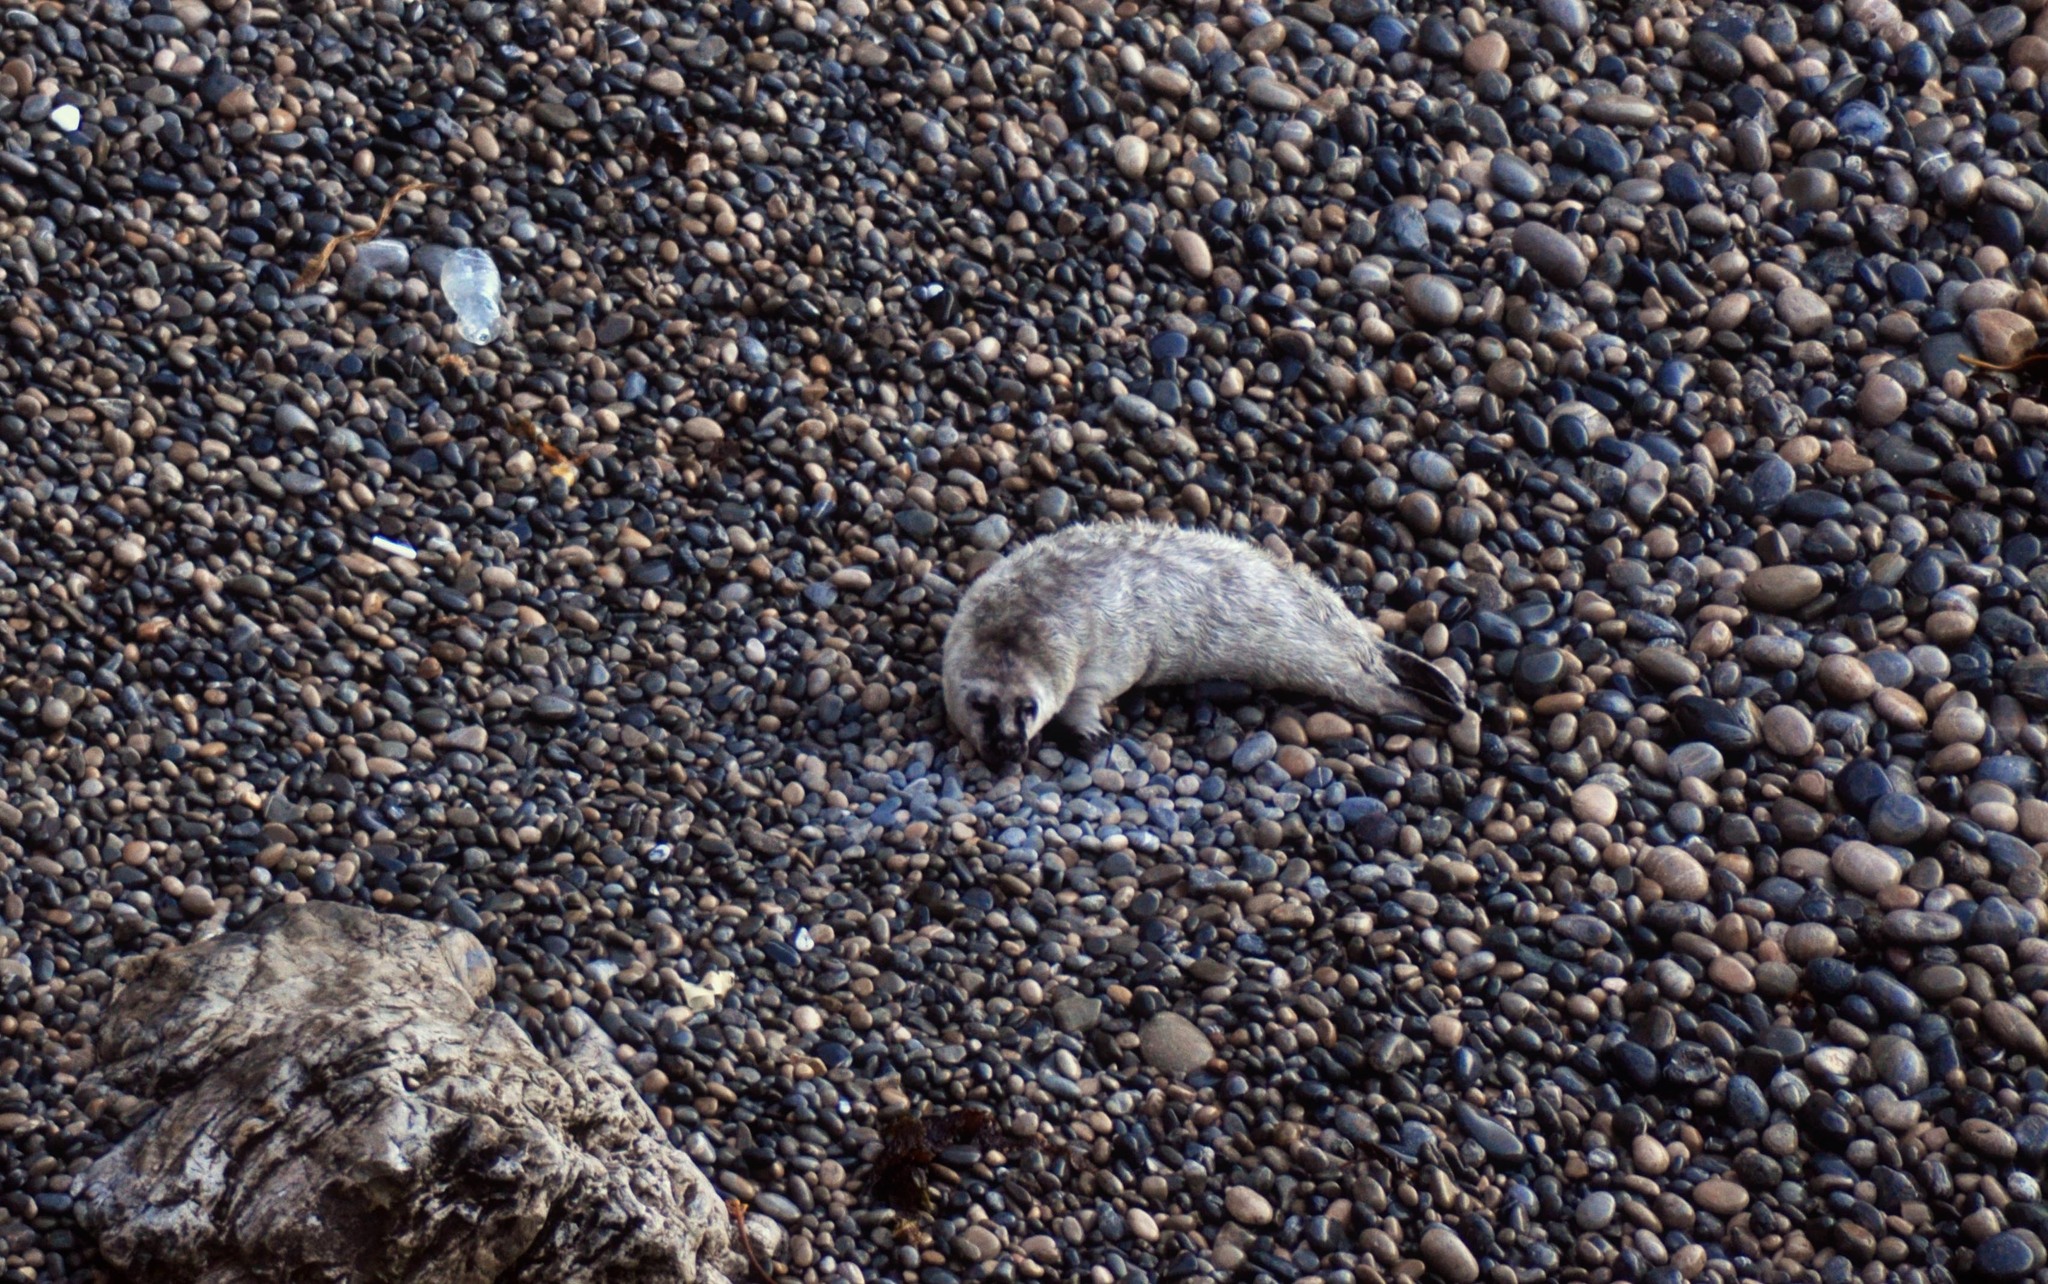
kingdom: Animalia
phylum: Chordata
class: Mammalia
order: Carnivora
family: Phocidae
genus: Halichoerus
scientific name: Halichoerus grypus
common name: Grey seal
